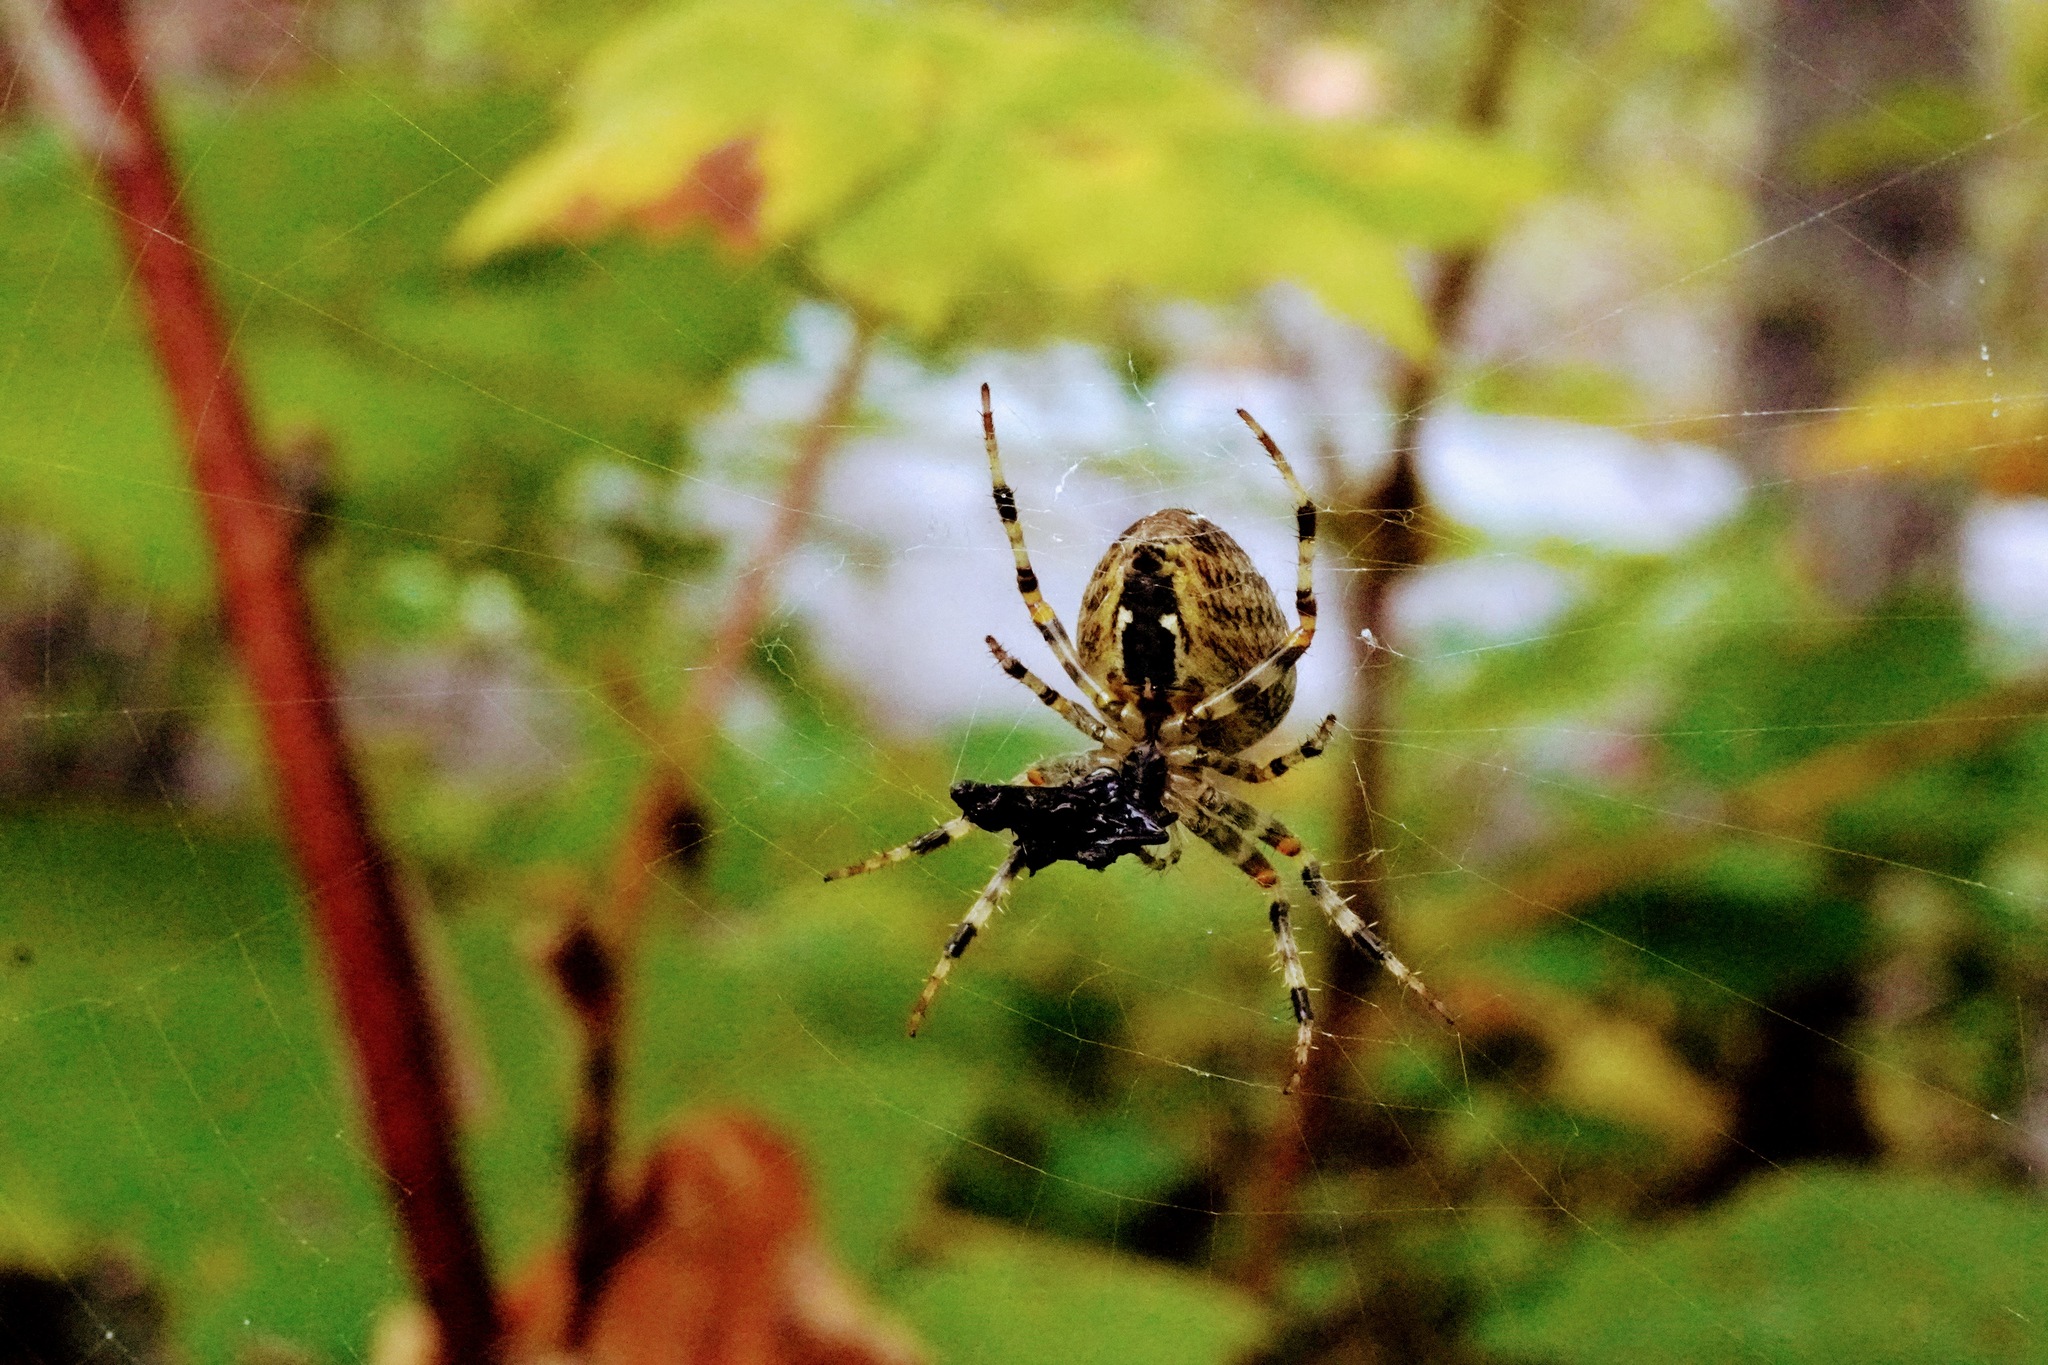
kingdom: Animalia
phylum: Arthropoda
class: Arachnida
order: Araneae
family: Araneidae
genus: Araneus
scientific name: Araneus diadematus
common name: Cross orbweaver
